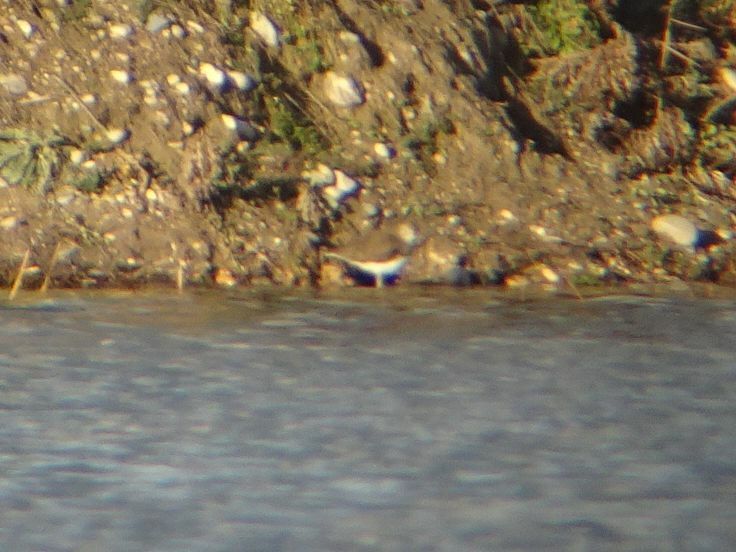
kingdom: Animalia
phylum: Chordata
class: Aves
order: Charadriiformes
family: Scolopacidae
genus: Tringa
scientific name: Tringa ochropus
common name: Green sandpiper
